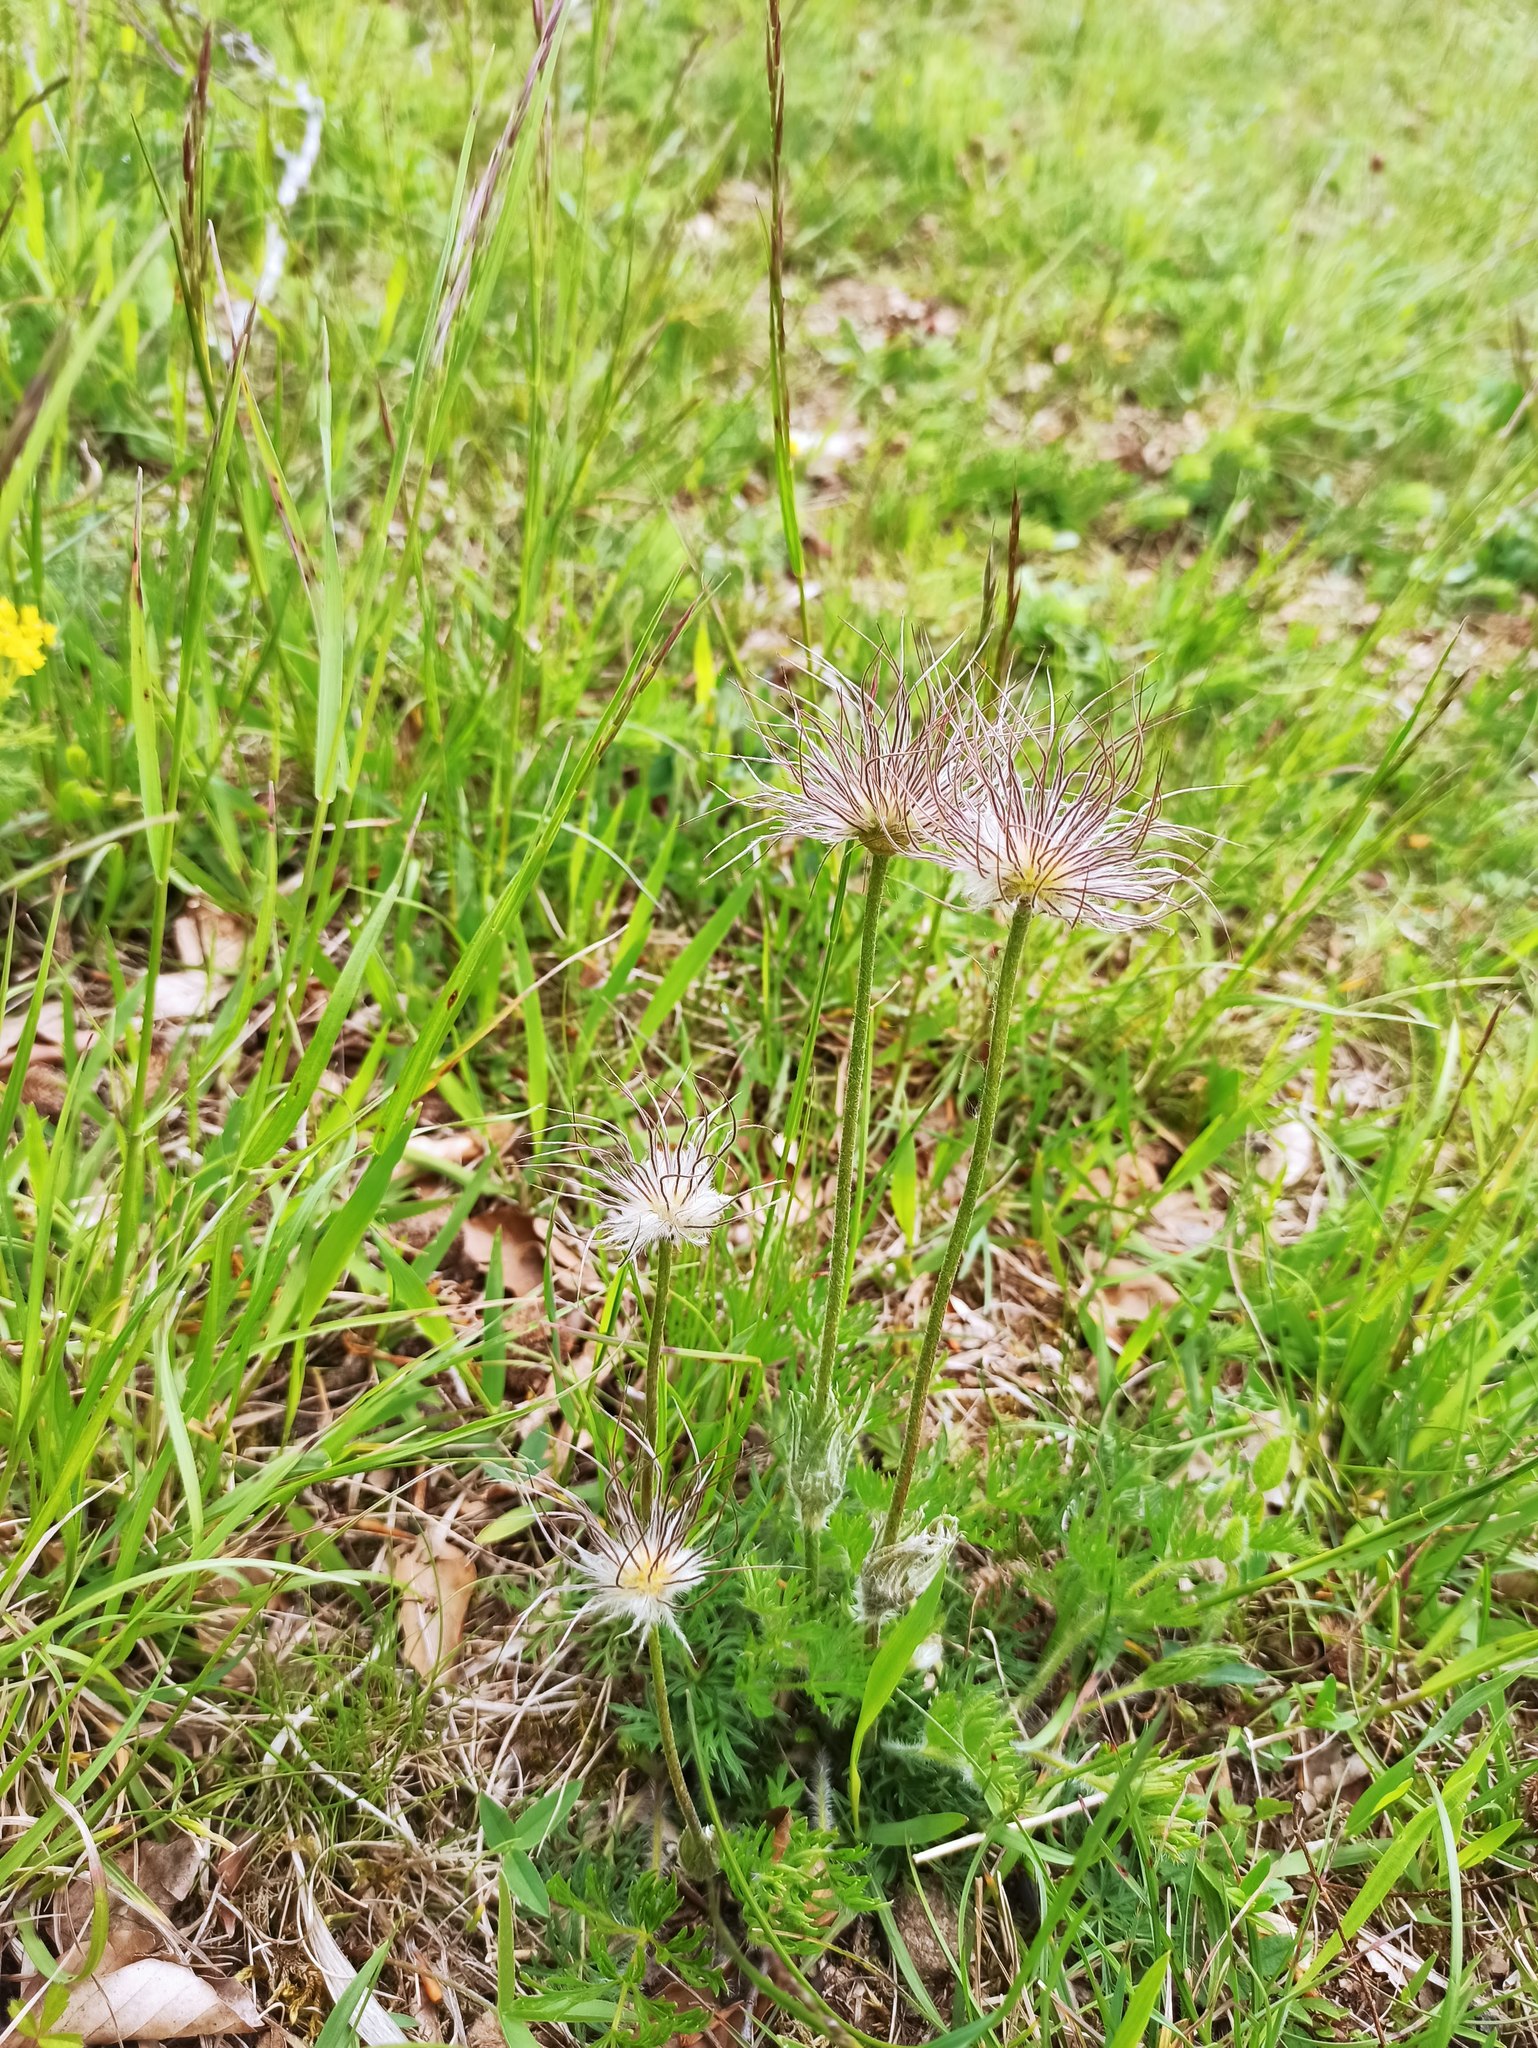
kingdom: Plantae
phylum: Tracheophyta
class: Magnoliopsida
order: Ranunculales
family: Ranunculaceae
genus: Pulsatilla
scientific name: Pulsatilla vulgaris
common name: Pasqueflower
